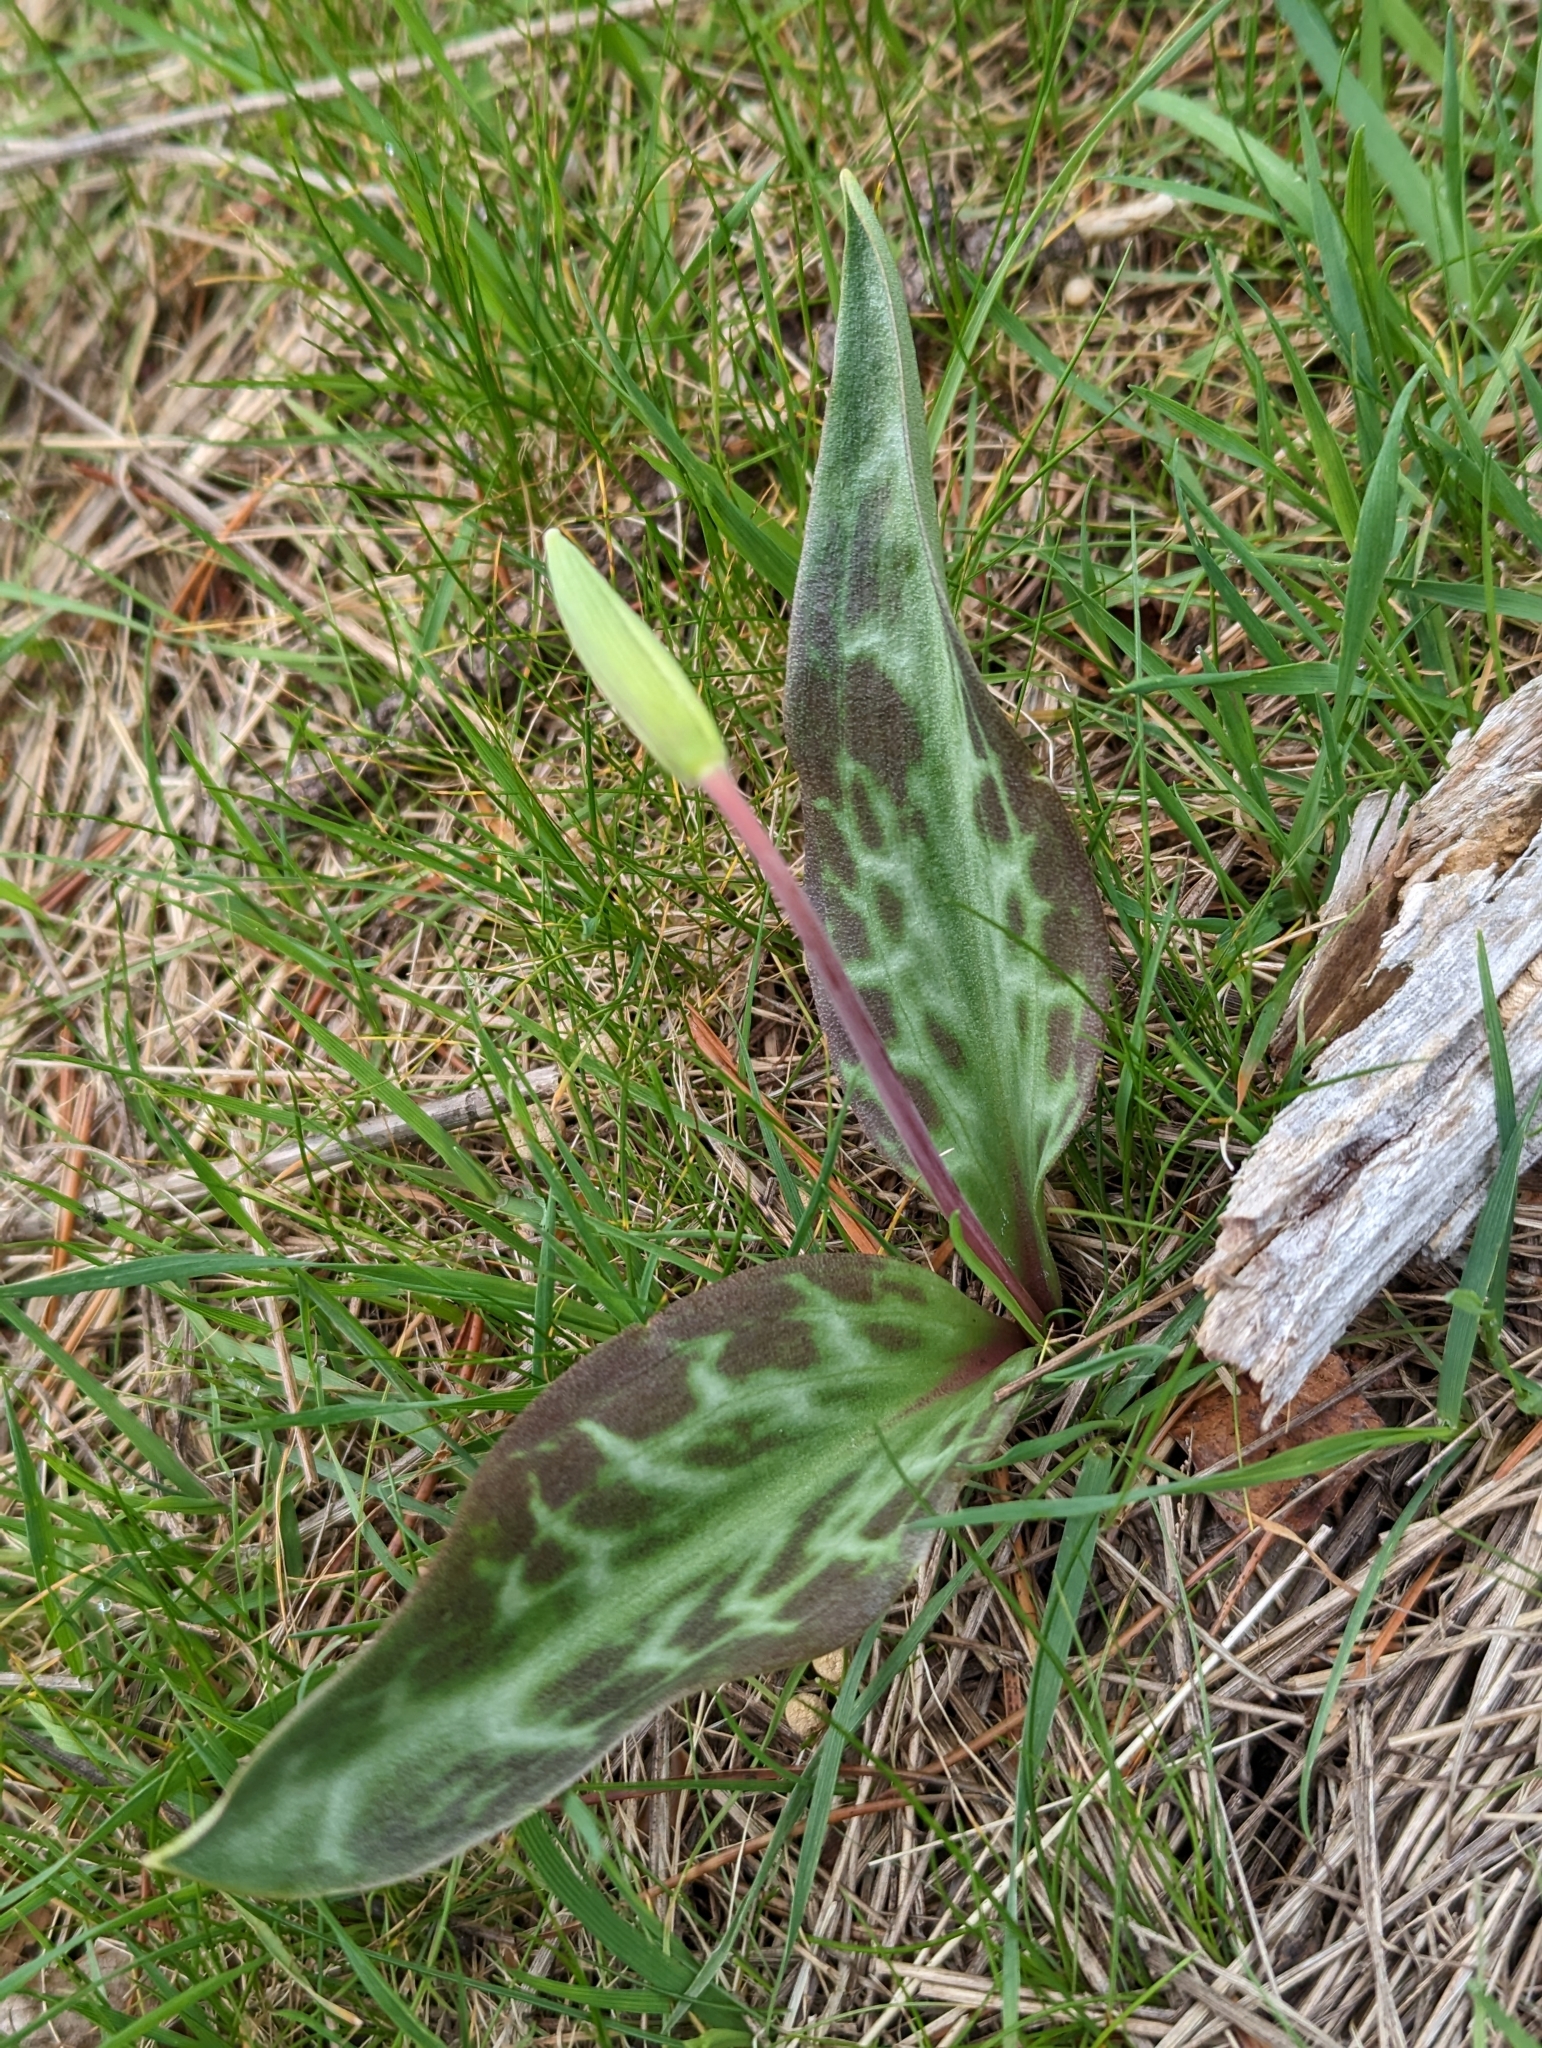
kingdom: Plantae
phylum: Tracheophyta
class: Liliopsida
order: Liliales
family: Liliaceae
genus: Erythronium
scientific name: Erythronium oregonum
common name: Giant adder's-tongue
